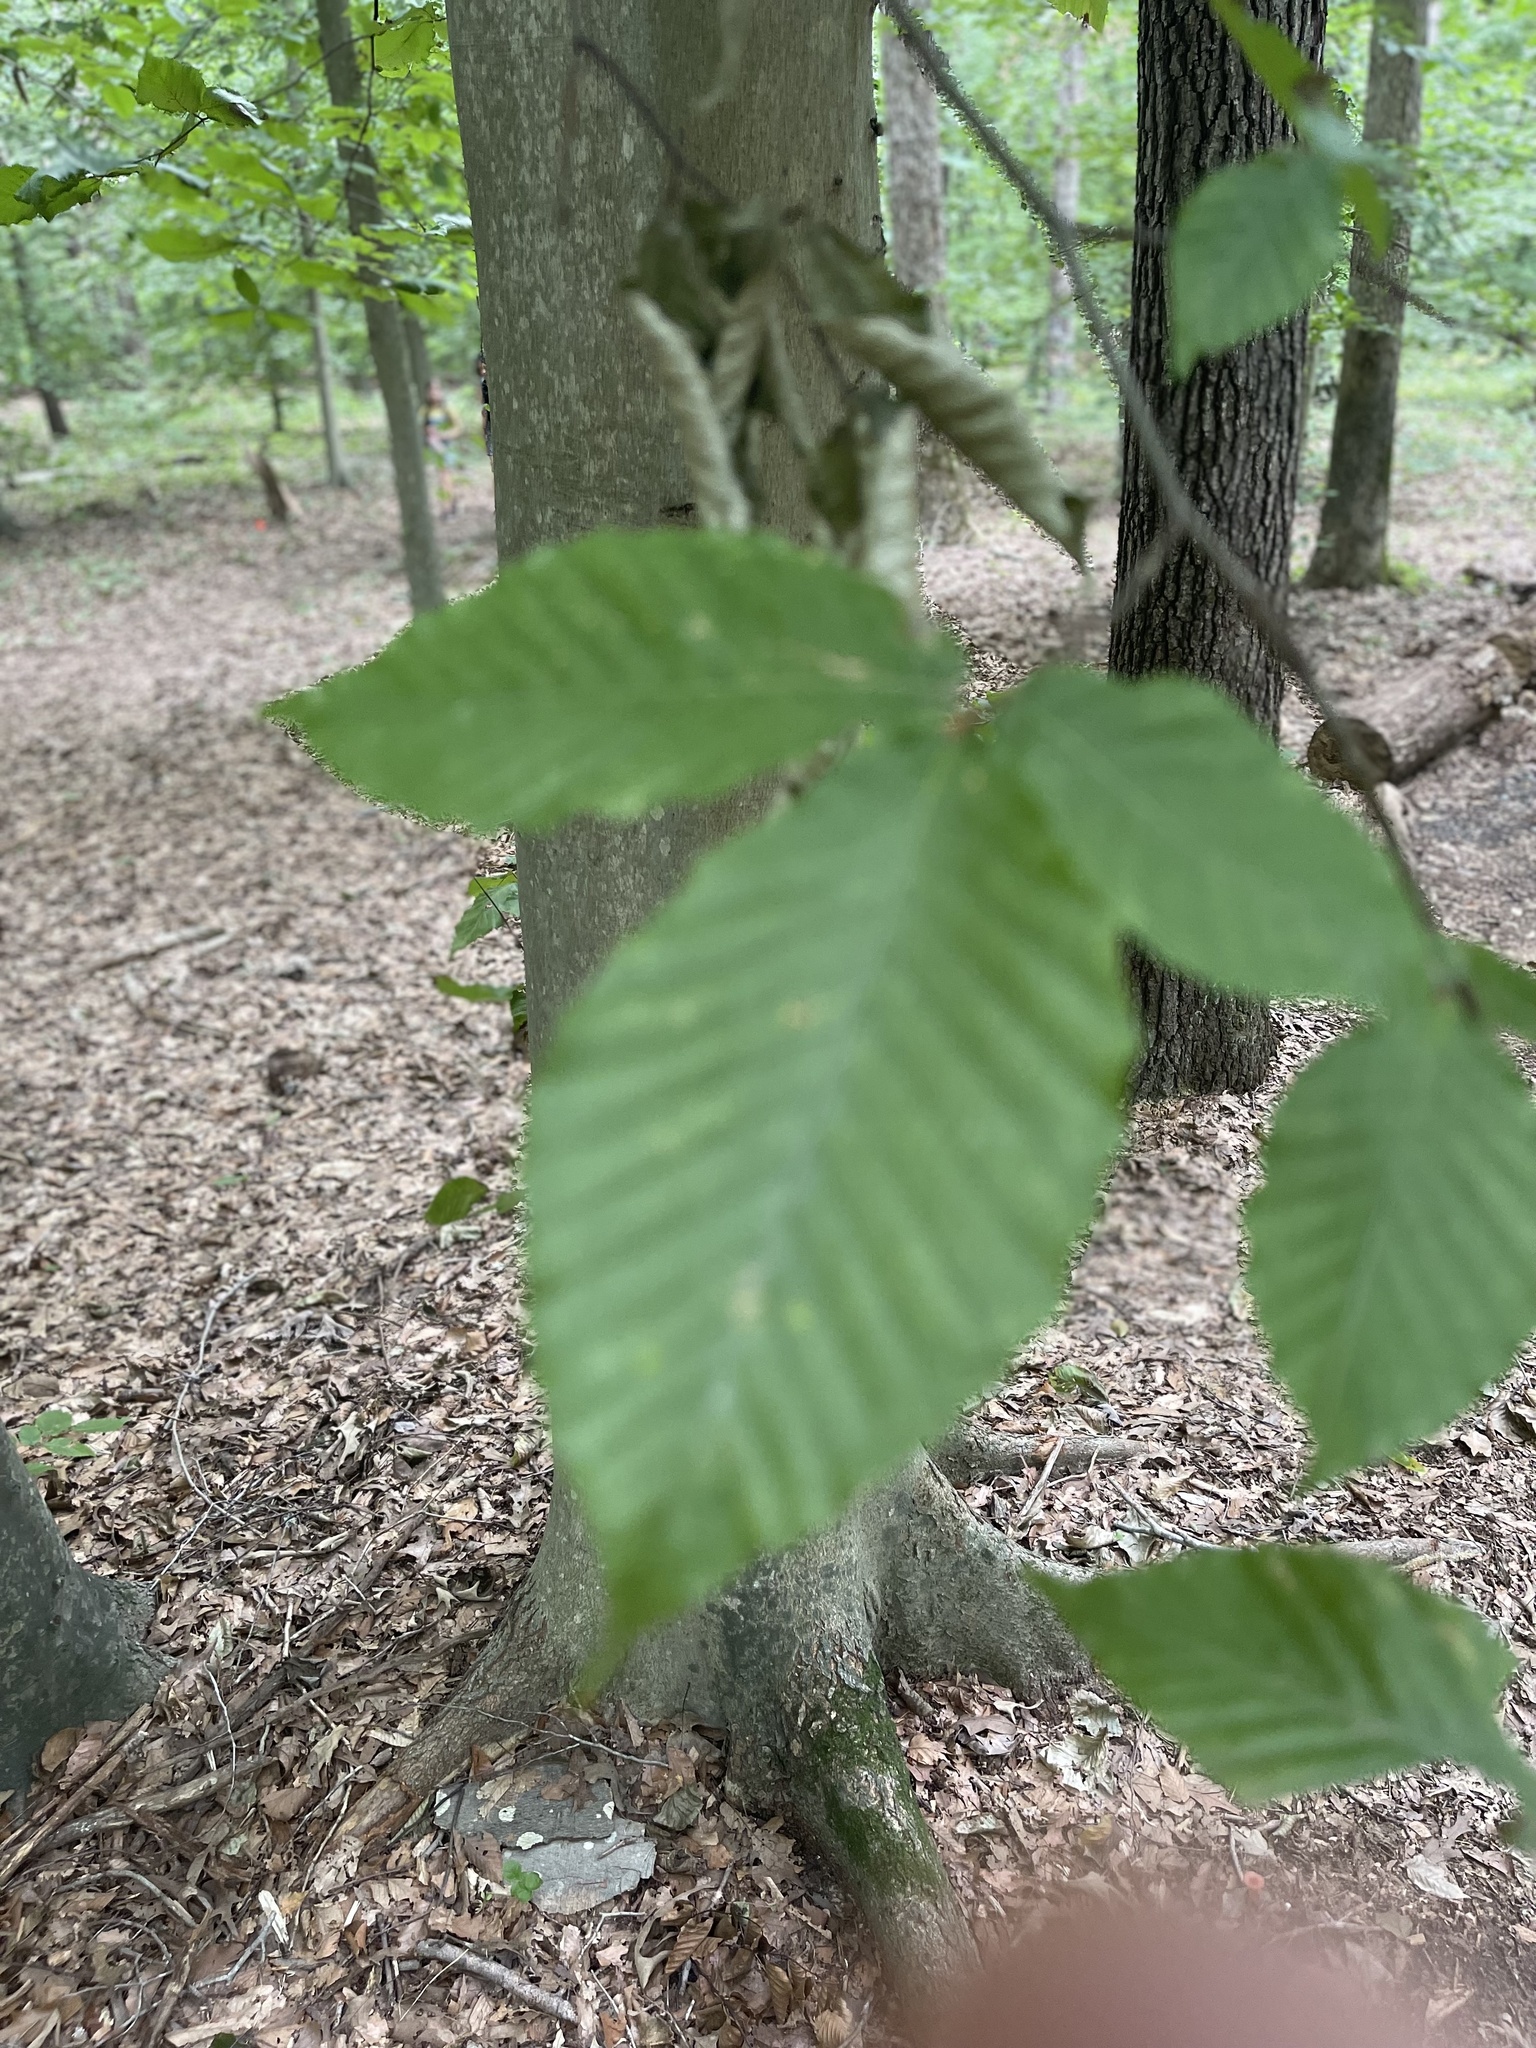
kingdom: Plantae
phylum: Tracheophyta
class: Magnoliopsida
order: Fagales
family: Fagaceae
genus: Fagus
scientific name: Fagus grandifolia
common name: American beech
